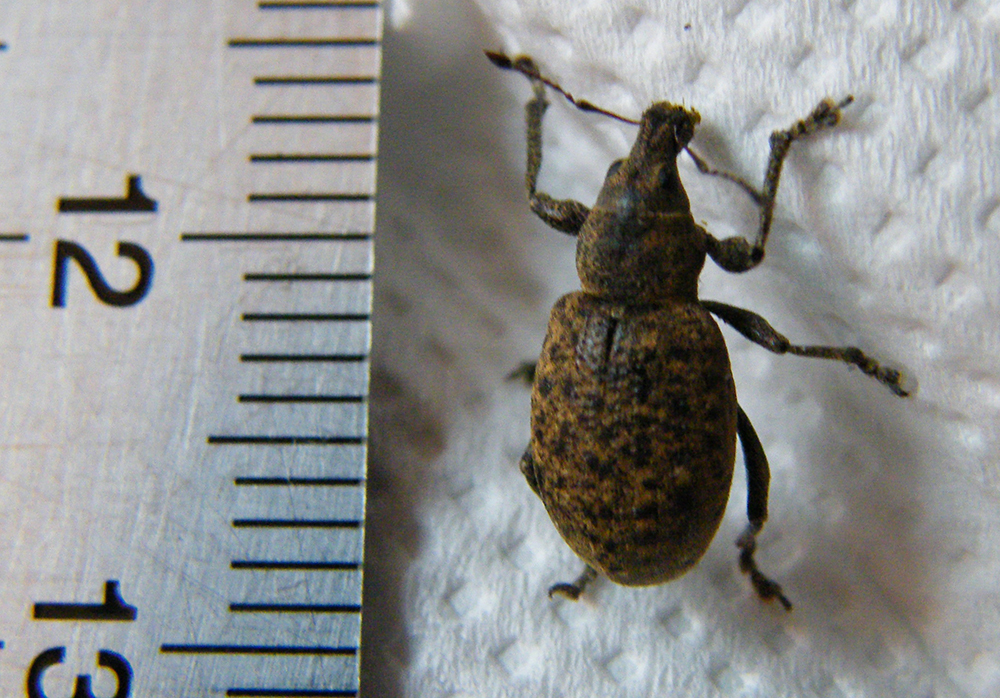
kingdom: Animalia
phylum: Arthropoda
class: Insecta
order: Coleoptera
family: Curculionidae
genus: Liophloeus
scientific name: Liophloeus tessulatus
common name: Weevil
